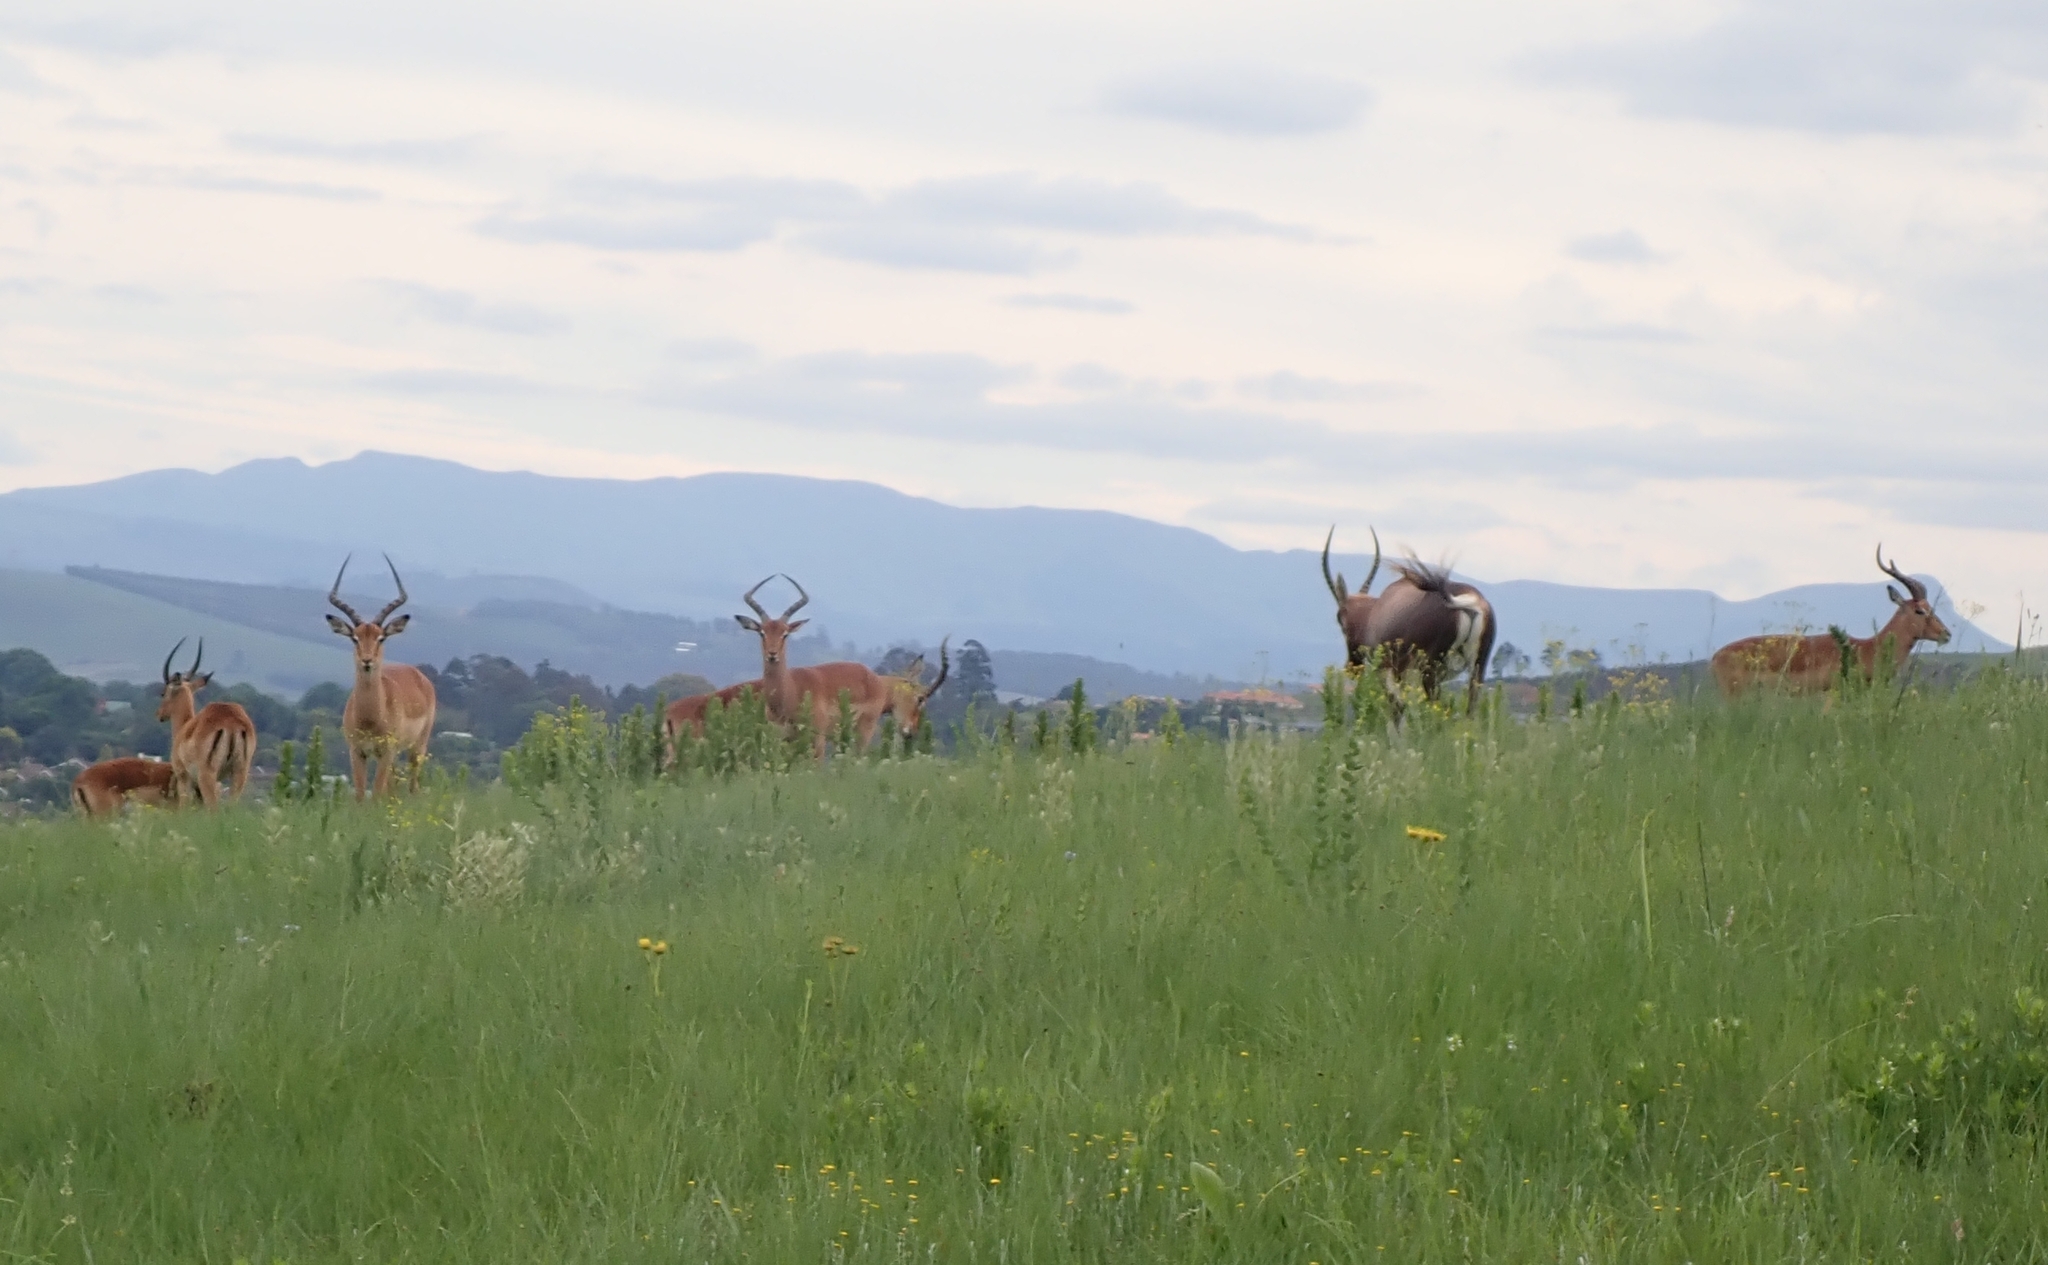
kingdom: Animalia
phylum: Chordata
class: Mammalia
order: Artiodactyla
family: Bovidae
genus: Aepyceros
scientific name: Aepyceros melampus
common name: Impala
